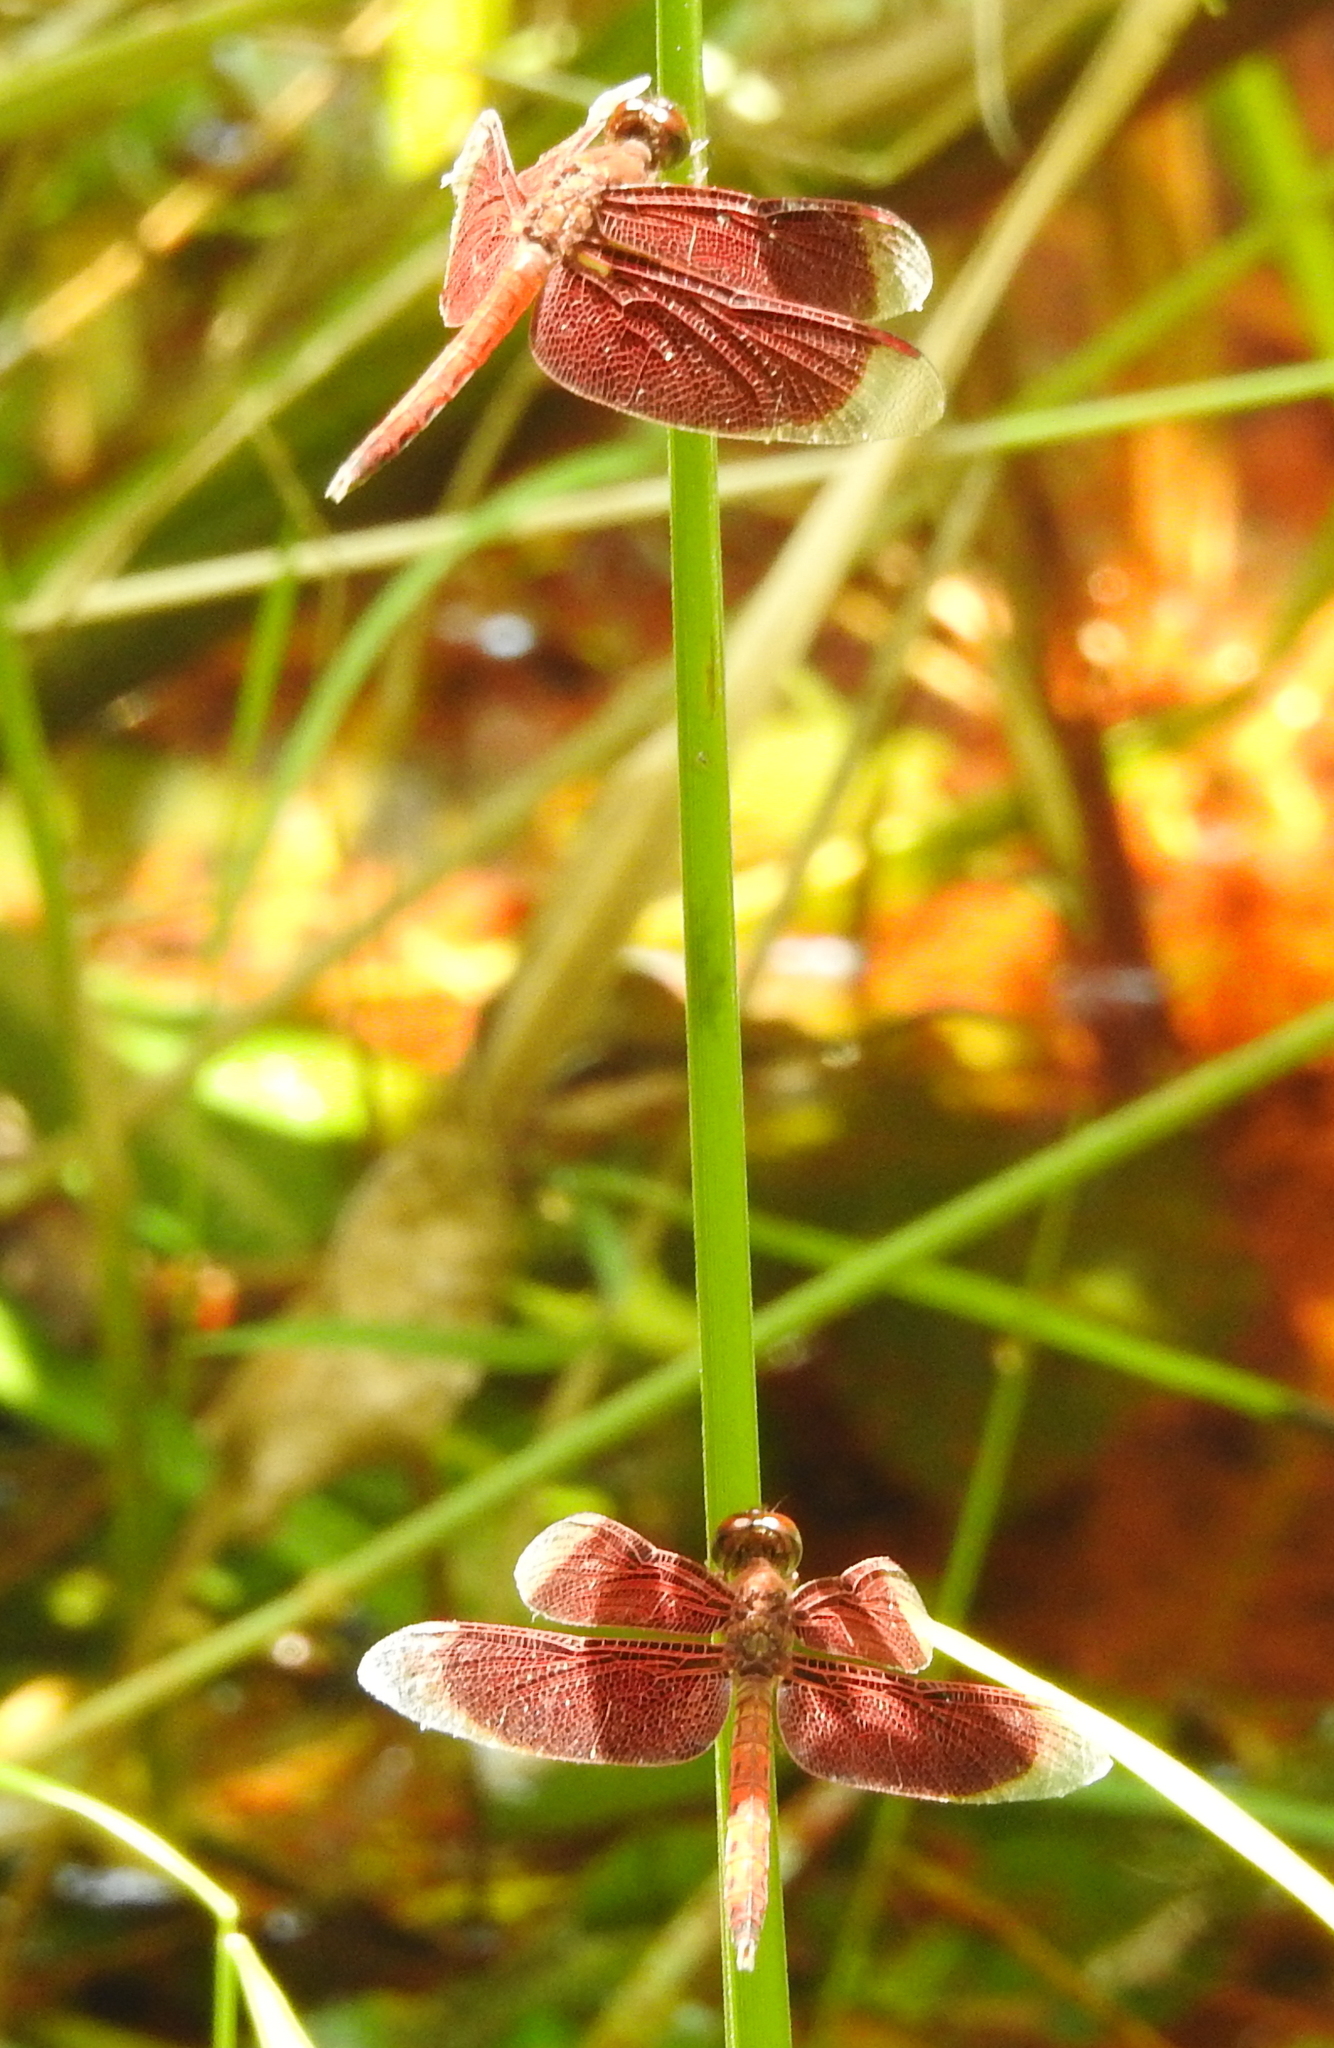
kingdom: Animalia
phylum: Arthropoda
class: Insecta
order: Odonata
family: Libellulidae
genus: Neurothemis
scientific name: Neurothemis fluctuans
